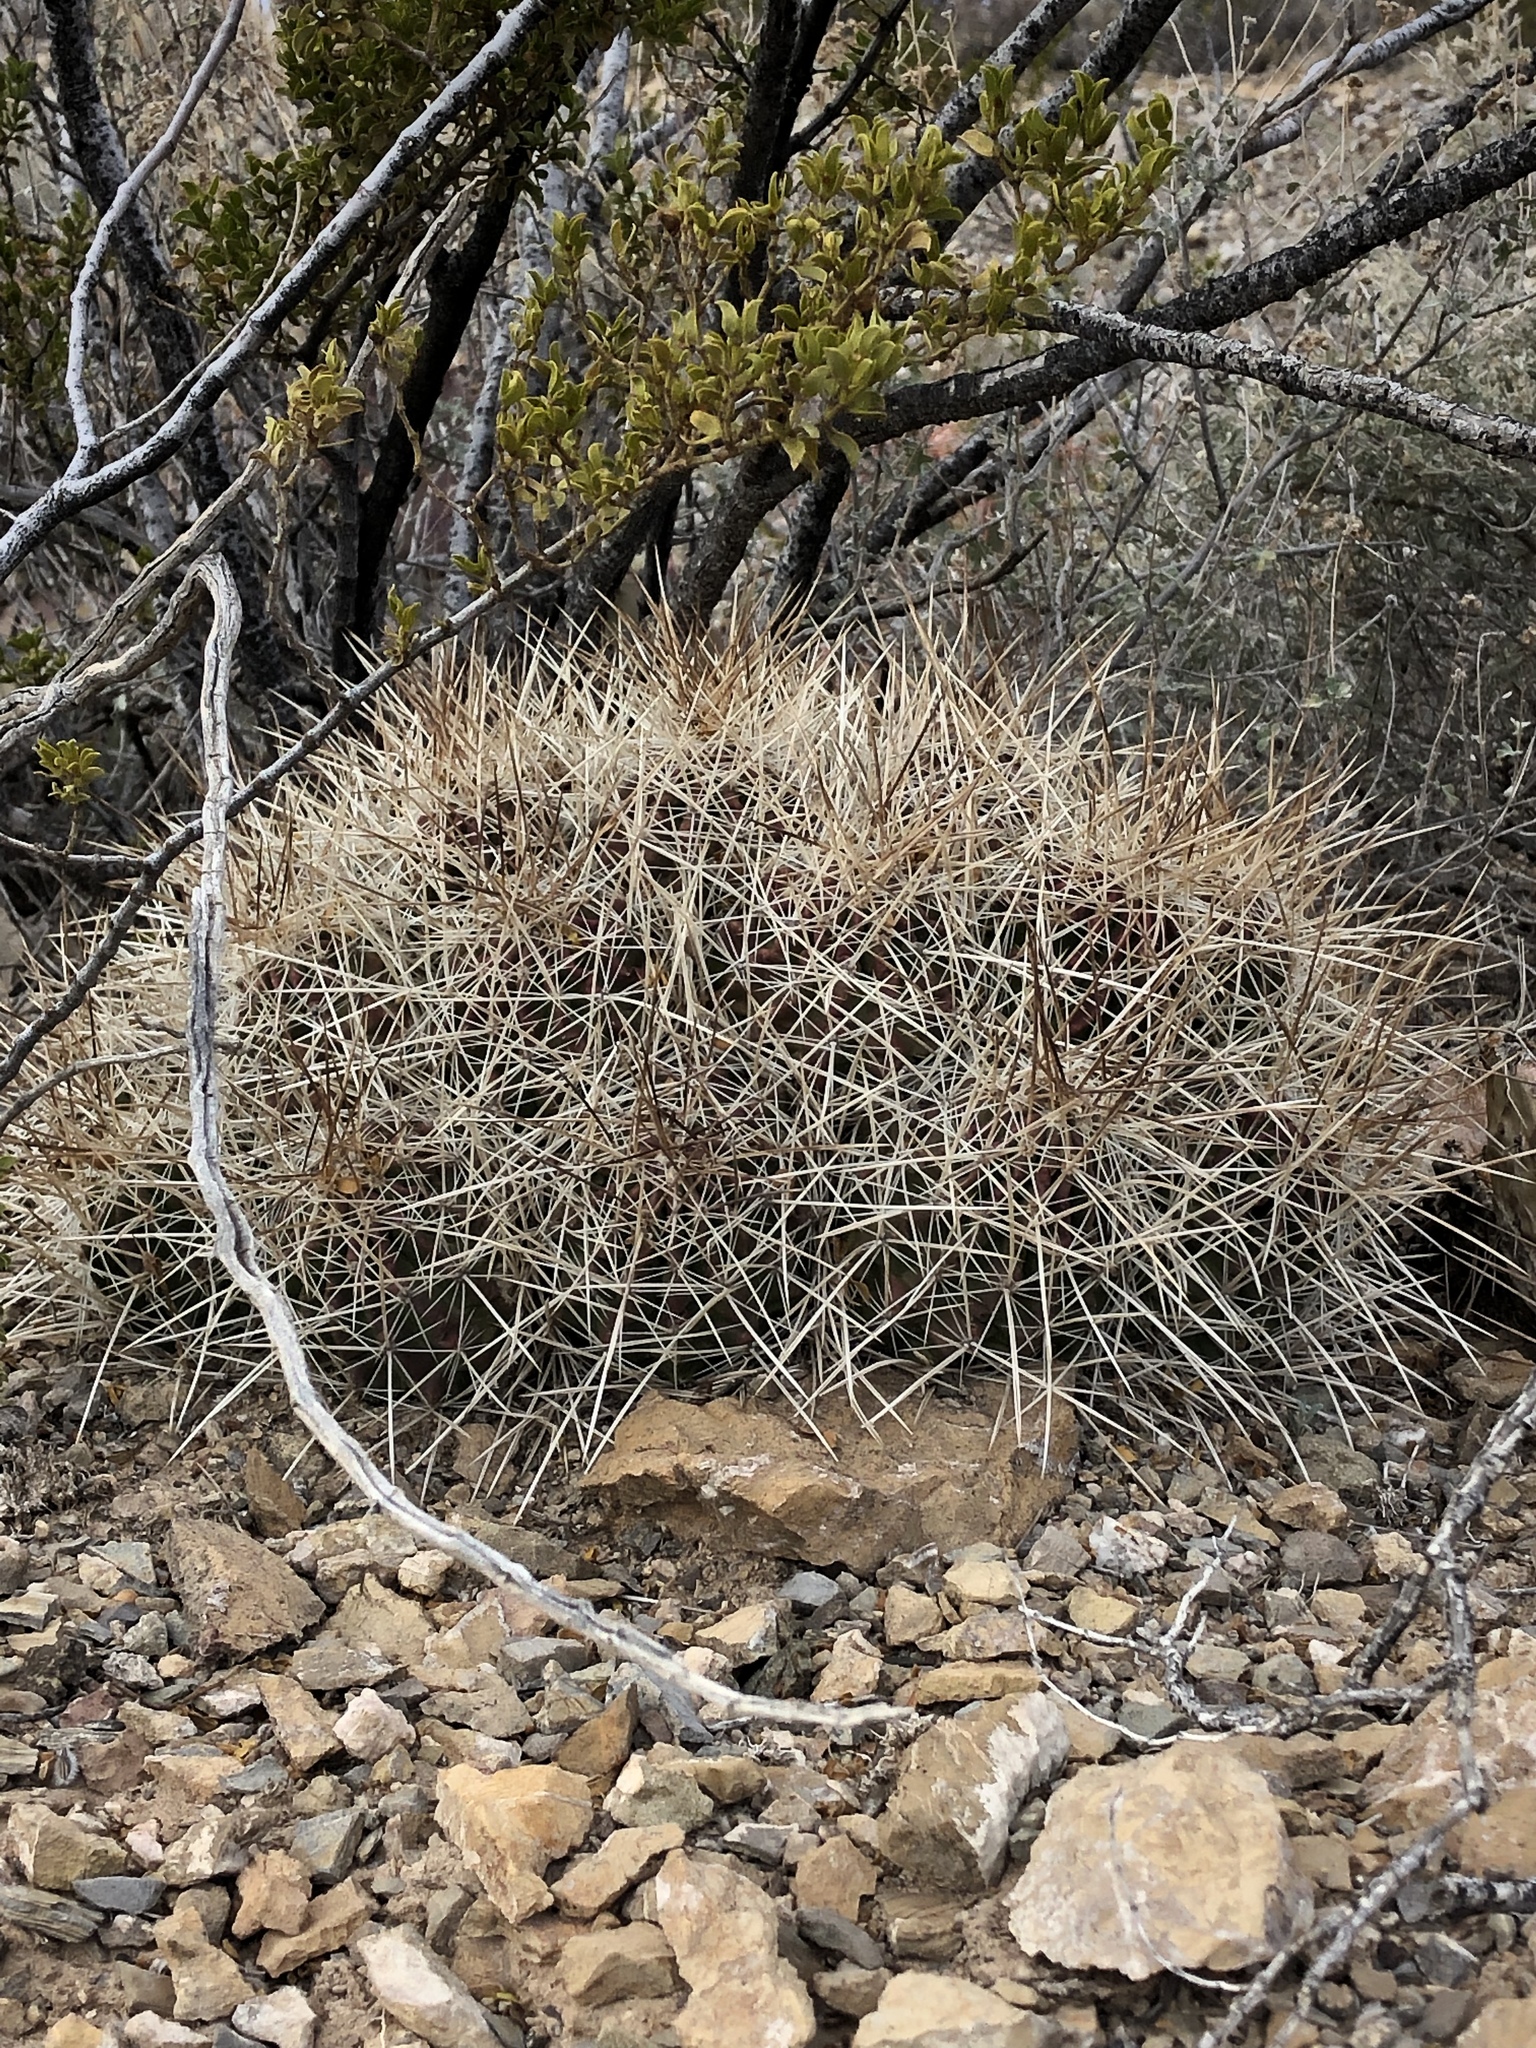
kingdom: Plantae
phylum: Tracheophyta
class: Magnoliopsida
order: Caryophyllales
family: Cactaceae
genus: Echinocereus
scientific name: Echinocereus coccineus
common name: Scarlet hedgehog cactus
